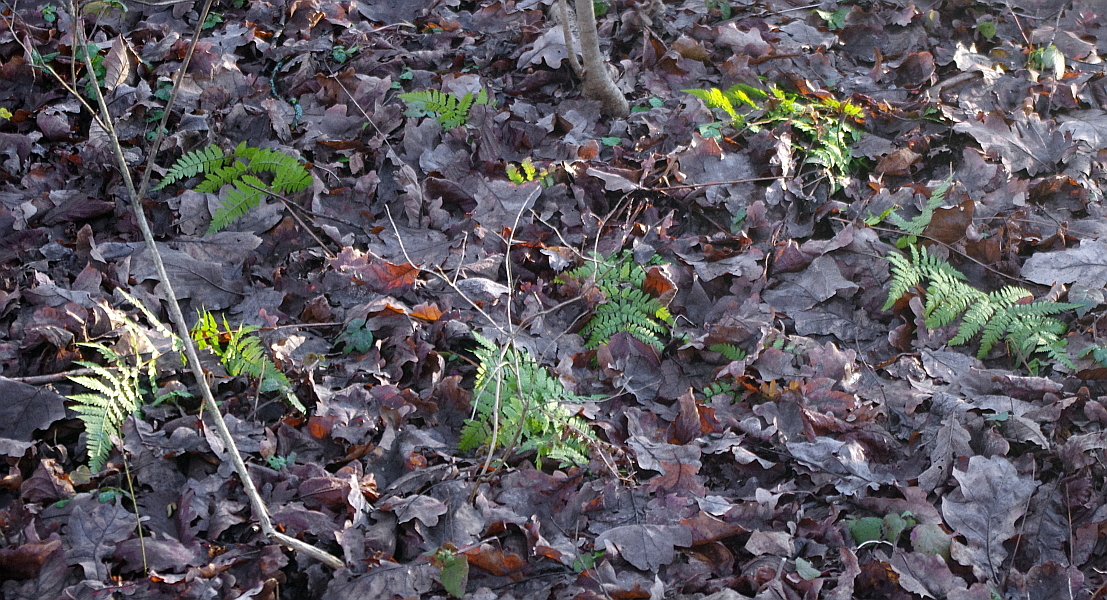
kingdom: Plantae
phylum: Tracheophyta
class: Polypodiopsida
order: Polypodiales
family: Dryopteridaceae
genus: Dryopteris
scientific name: Dryopteris carthusiana
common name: Narrow buckler-fern
